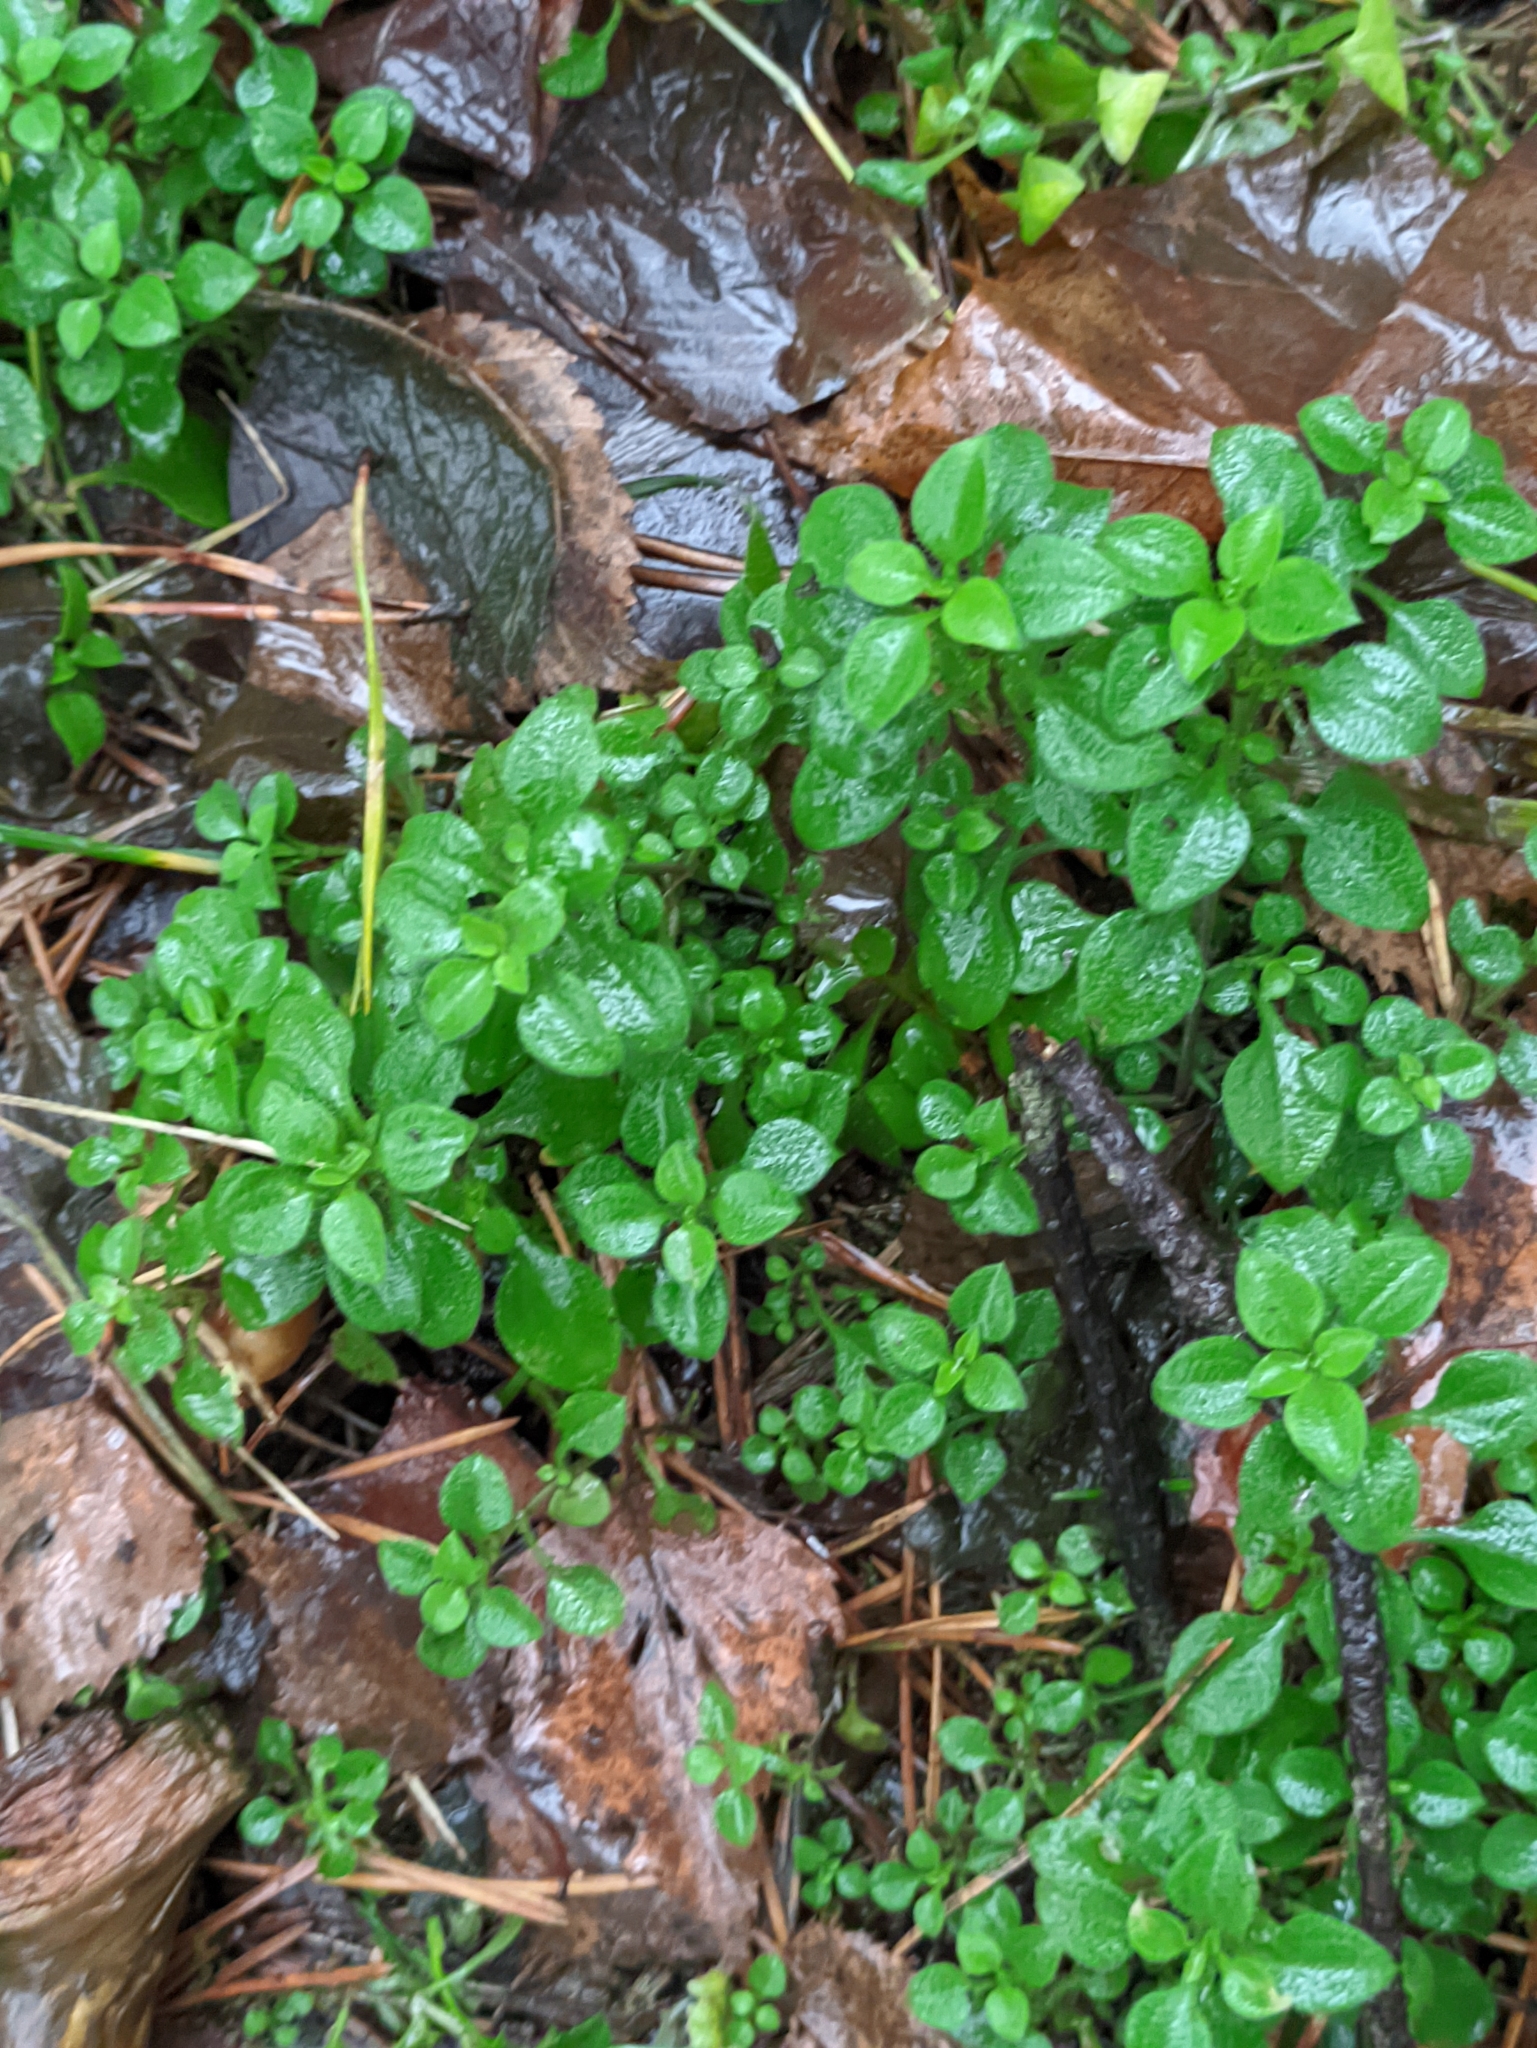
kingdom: Plantae
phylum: Tracheophyta
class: Magnoliopsida
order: Caryophyllales
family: Caryophyllaceae
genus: Moehringia
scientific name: Moehringia trinervia
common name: Three-nerved sandwort
